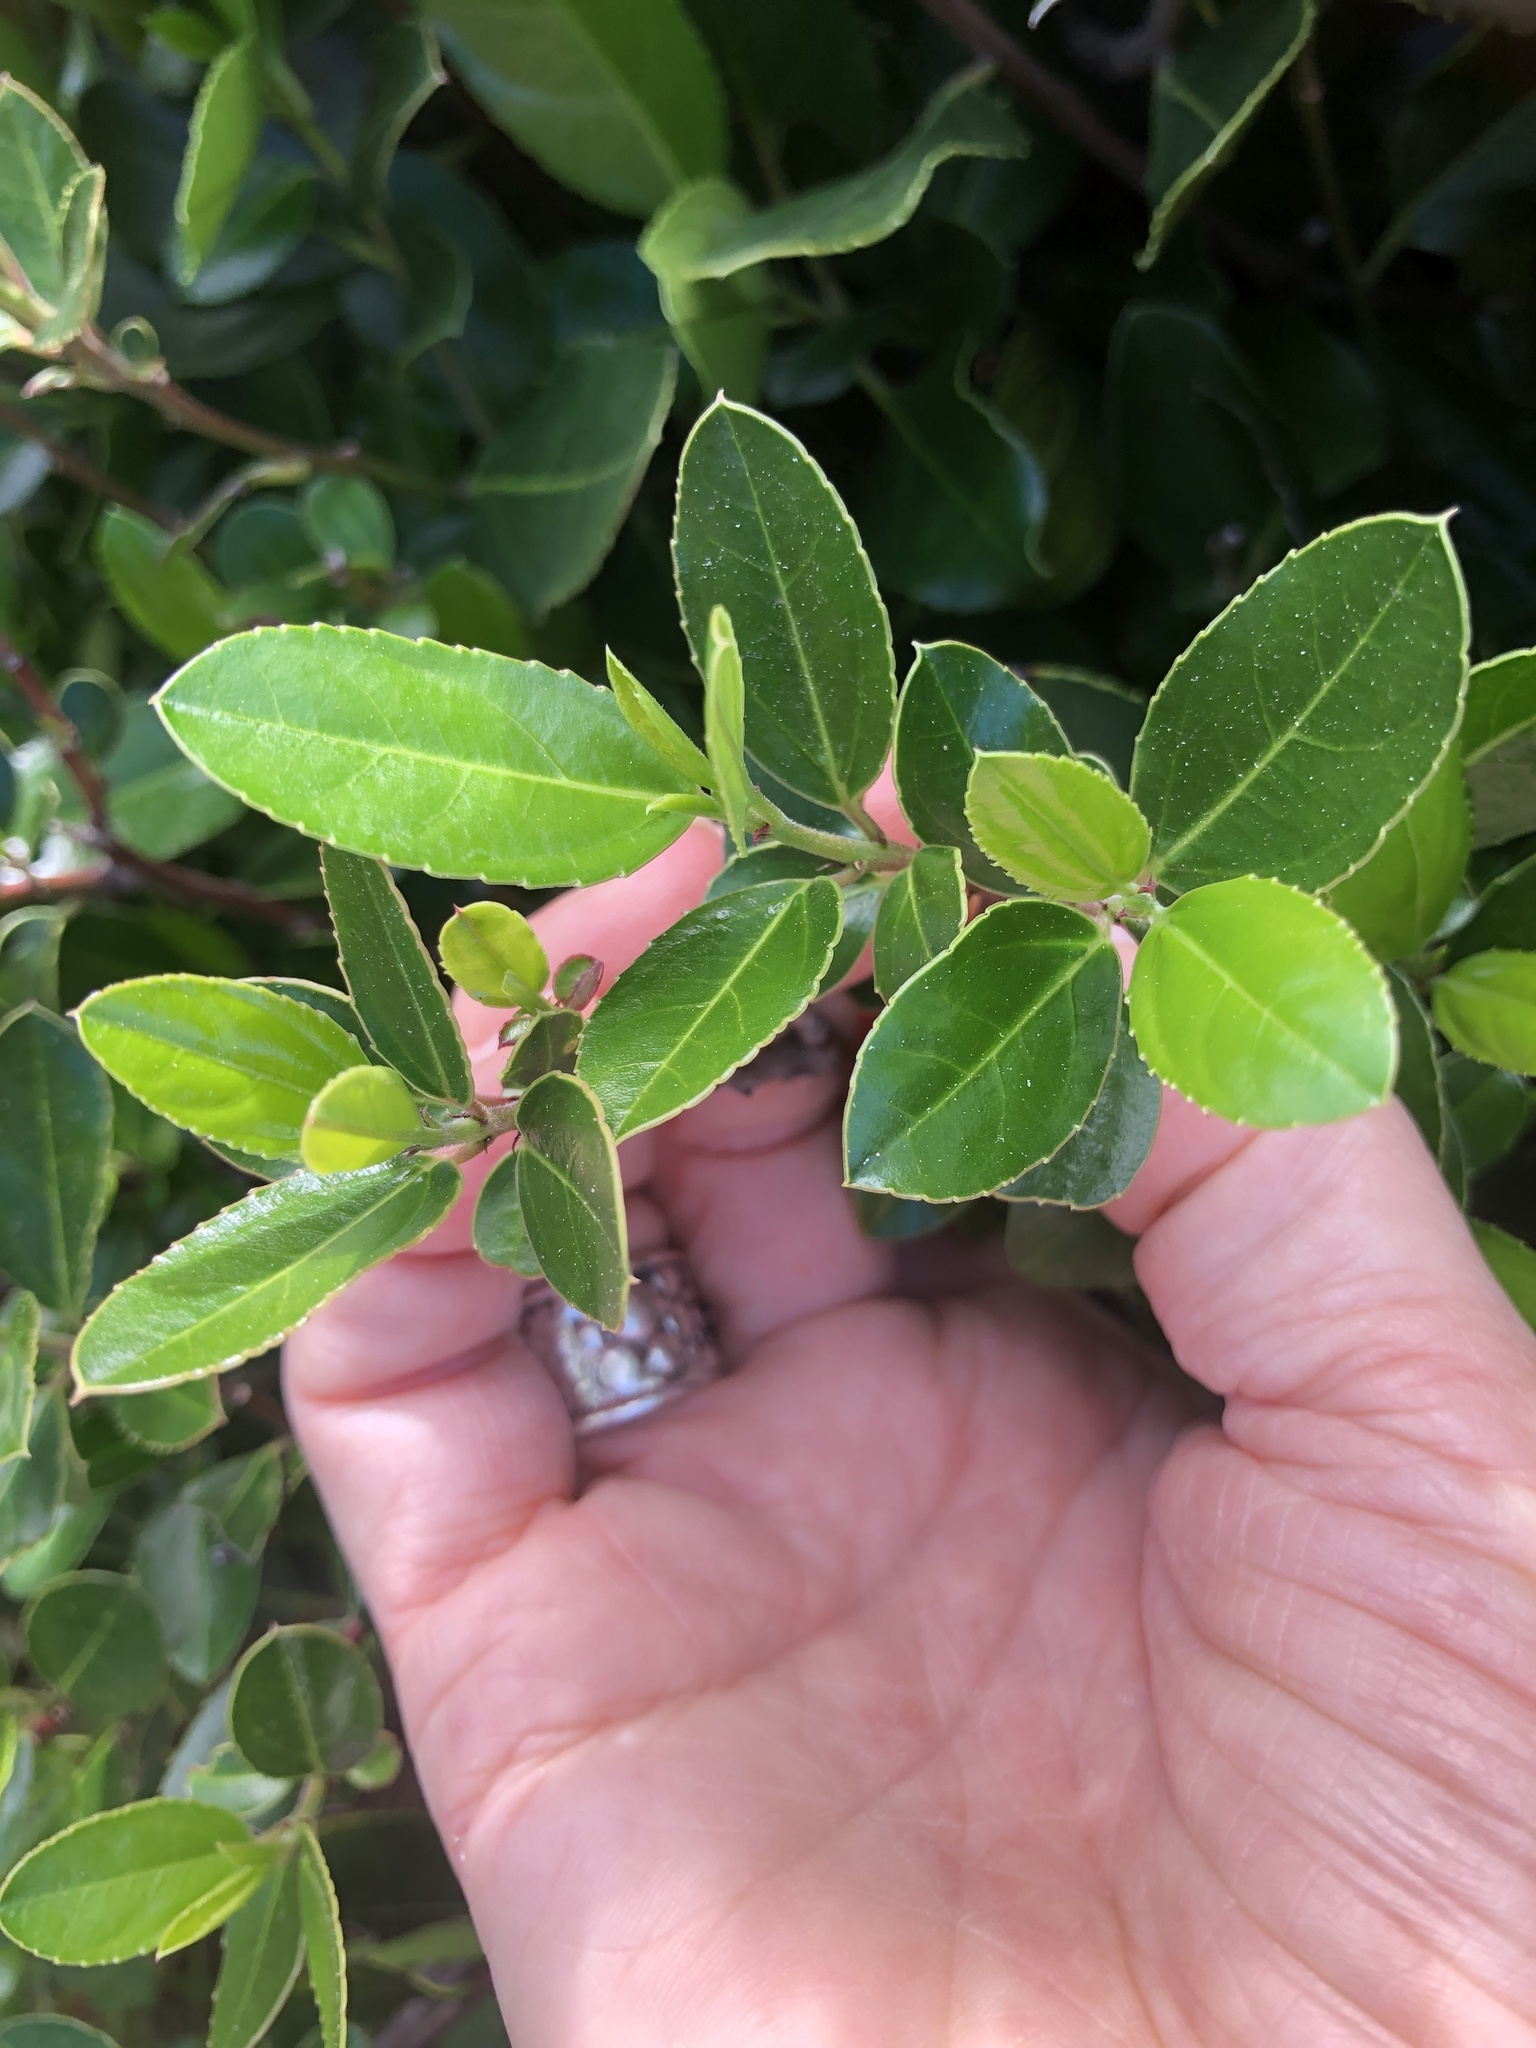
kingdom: Plantae
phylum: Tracheophyta
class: Magnoliopsida
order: Rosales
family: Rhamnaceae
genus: Rhamnus
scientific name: Rhamnus alaternus
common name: Mediterranean buckthorn
